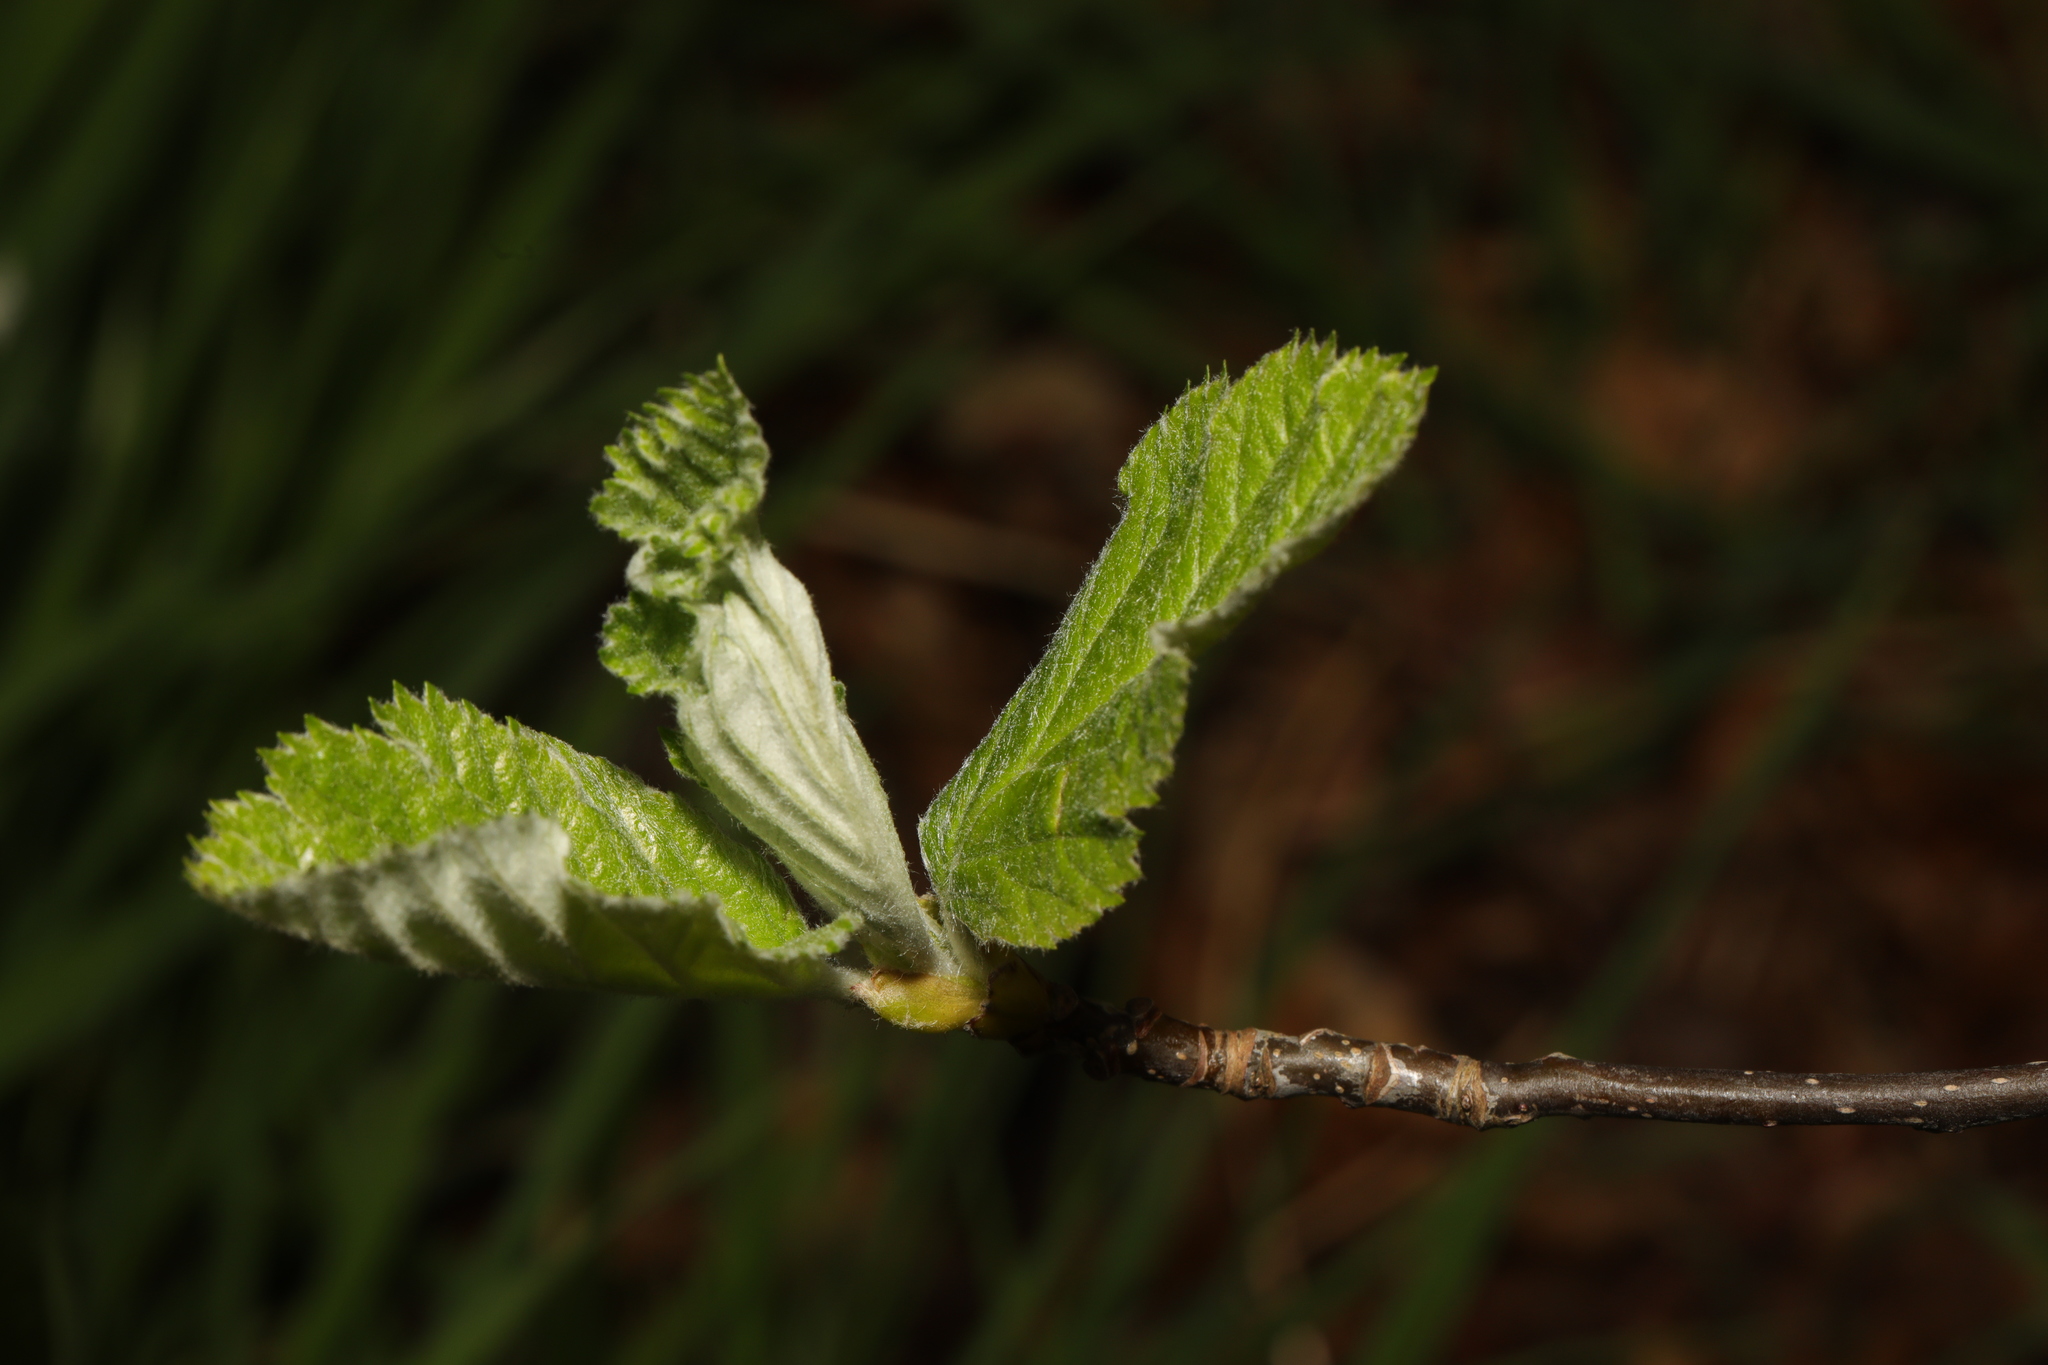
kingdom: Plantae
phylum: Tracheophyta
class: Magnoliopsida
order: Rosales
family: Rosaceae
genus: Scandosorbus
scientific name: Scandosorbus intermedia
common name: Swedish whitebeam
